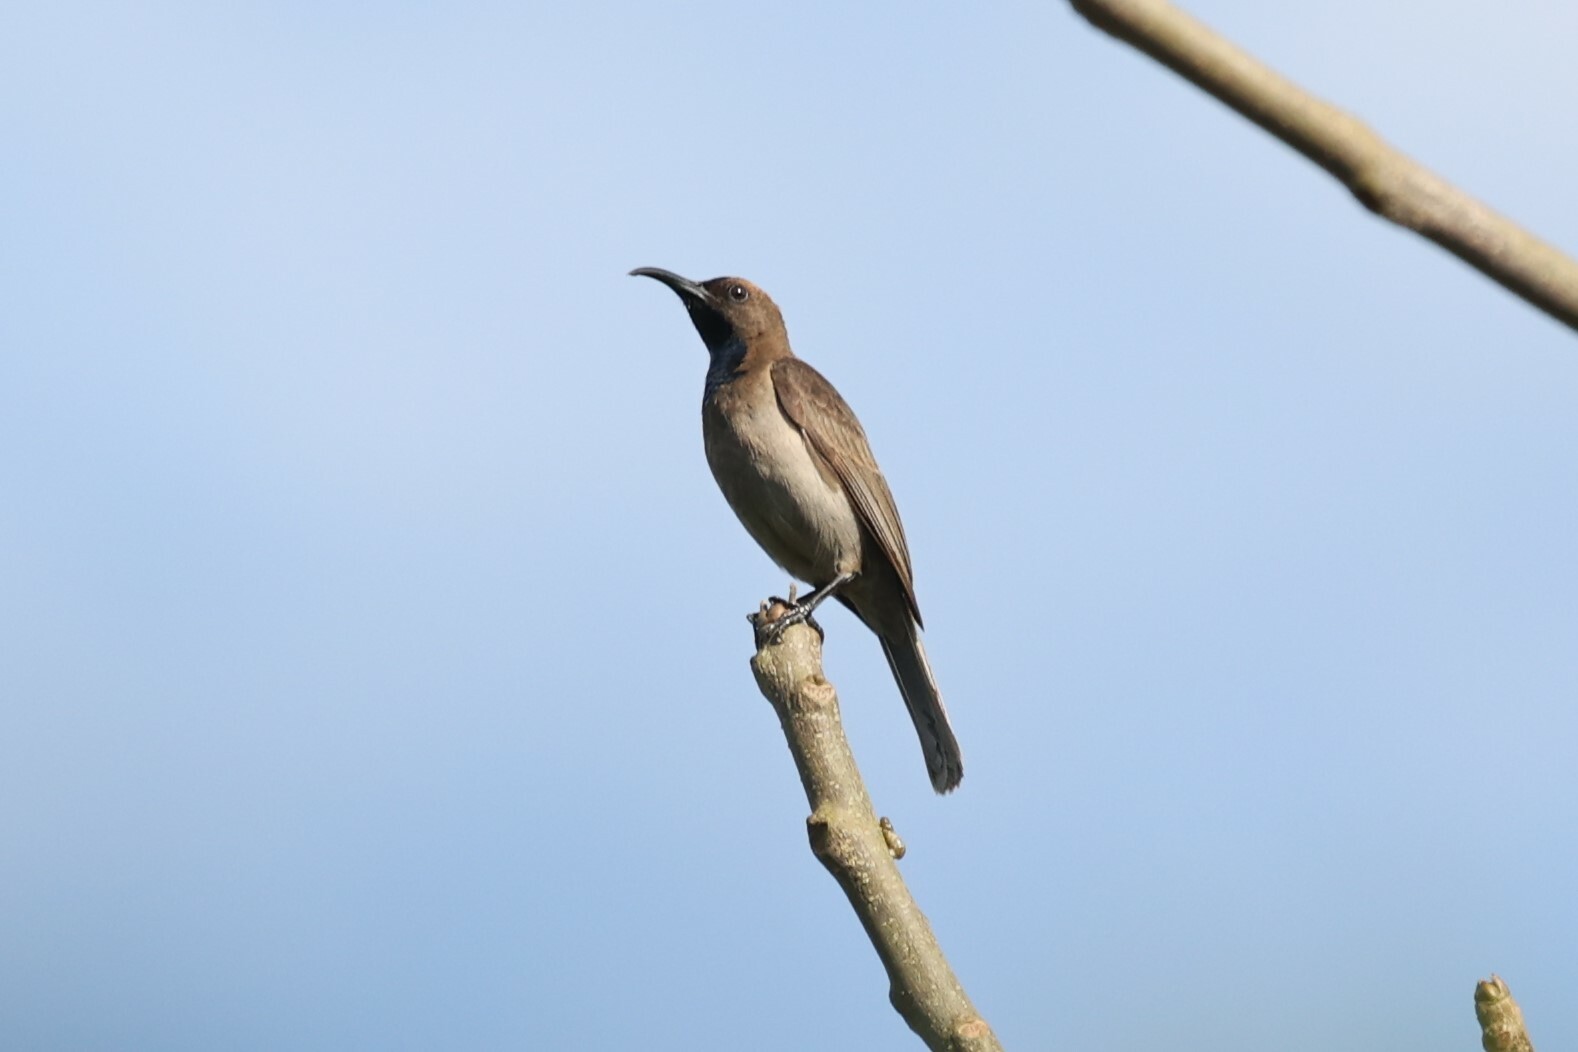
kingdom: Animalia
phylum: Chordata
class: Aves
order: Passeriformes
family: Nectariniidae
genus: Cyanomitra
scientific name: Cyanomitra cyanolaema
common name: Blue-throated brown sunbird
